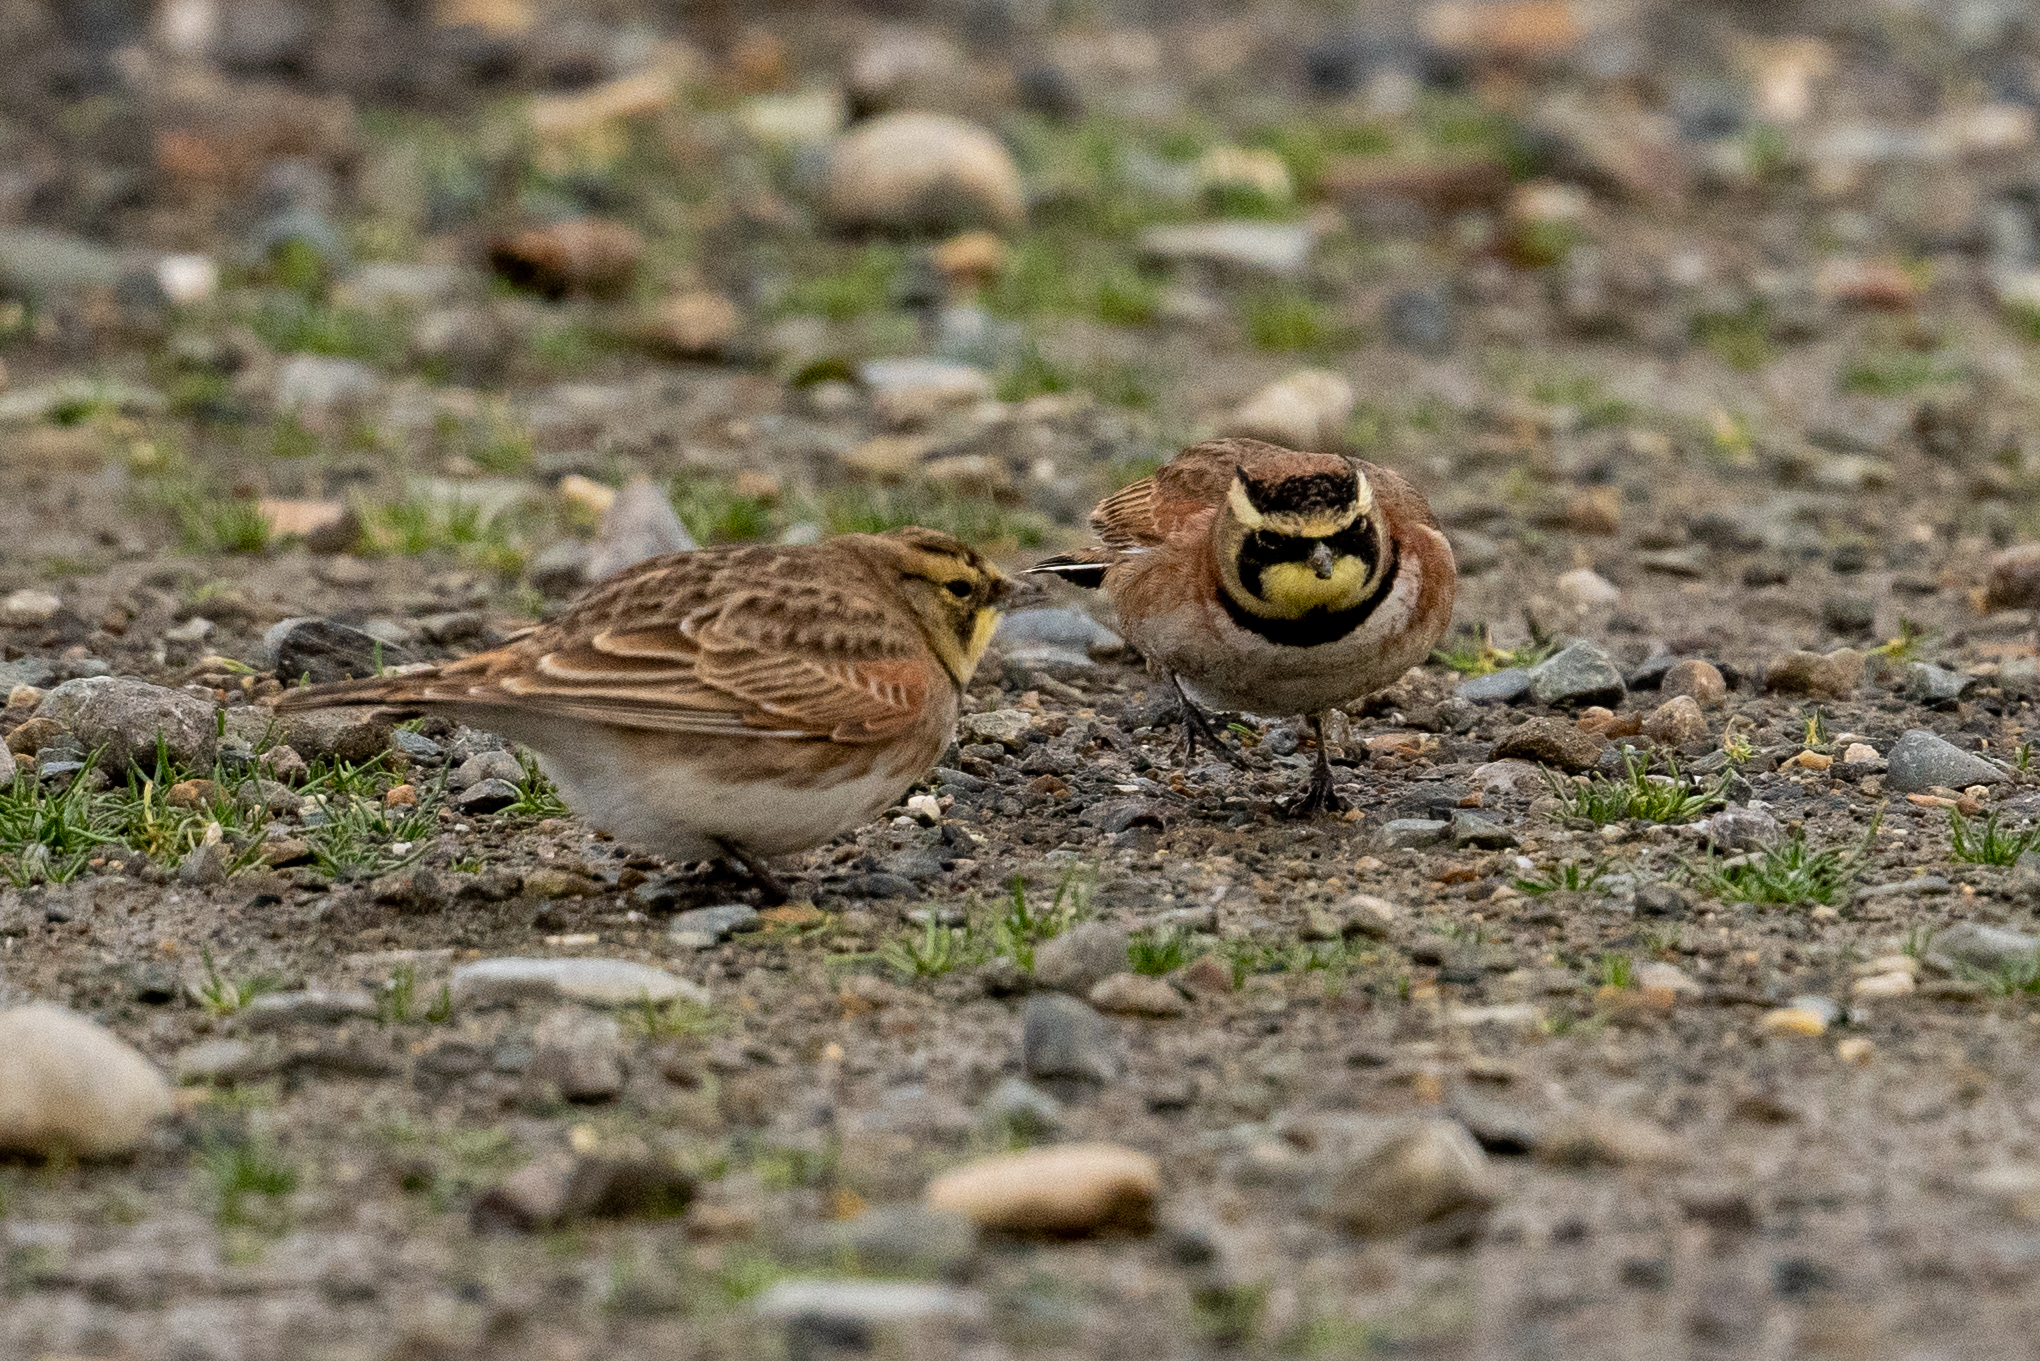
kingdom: Animalia
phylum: Chordata
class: Aves
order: Passeriformes
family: Alaudidae
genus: Eremophila
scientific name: Eremophila alpestris
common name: Horned lark
